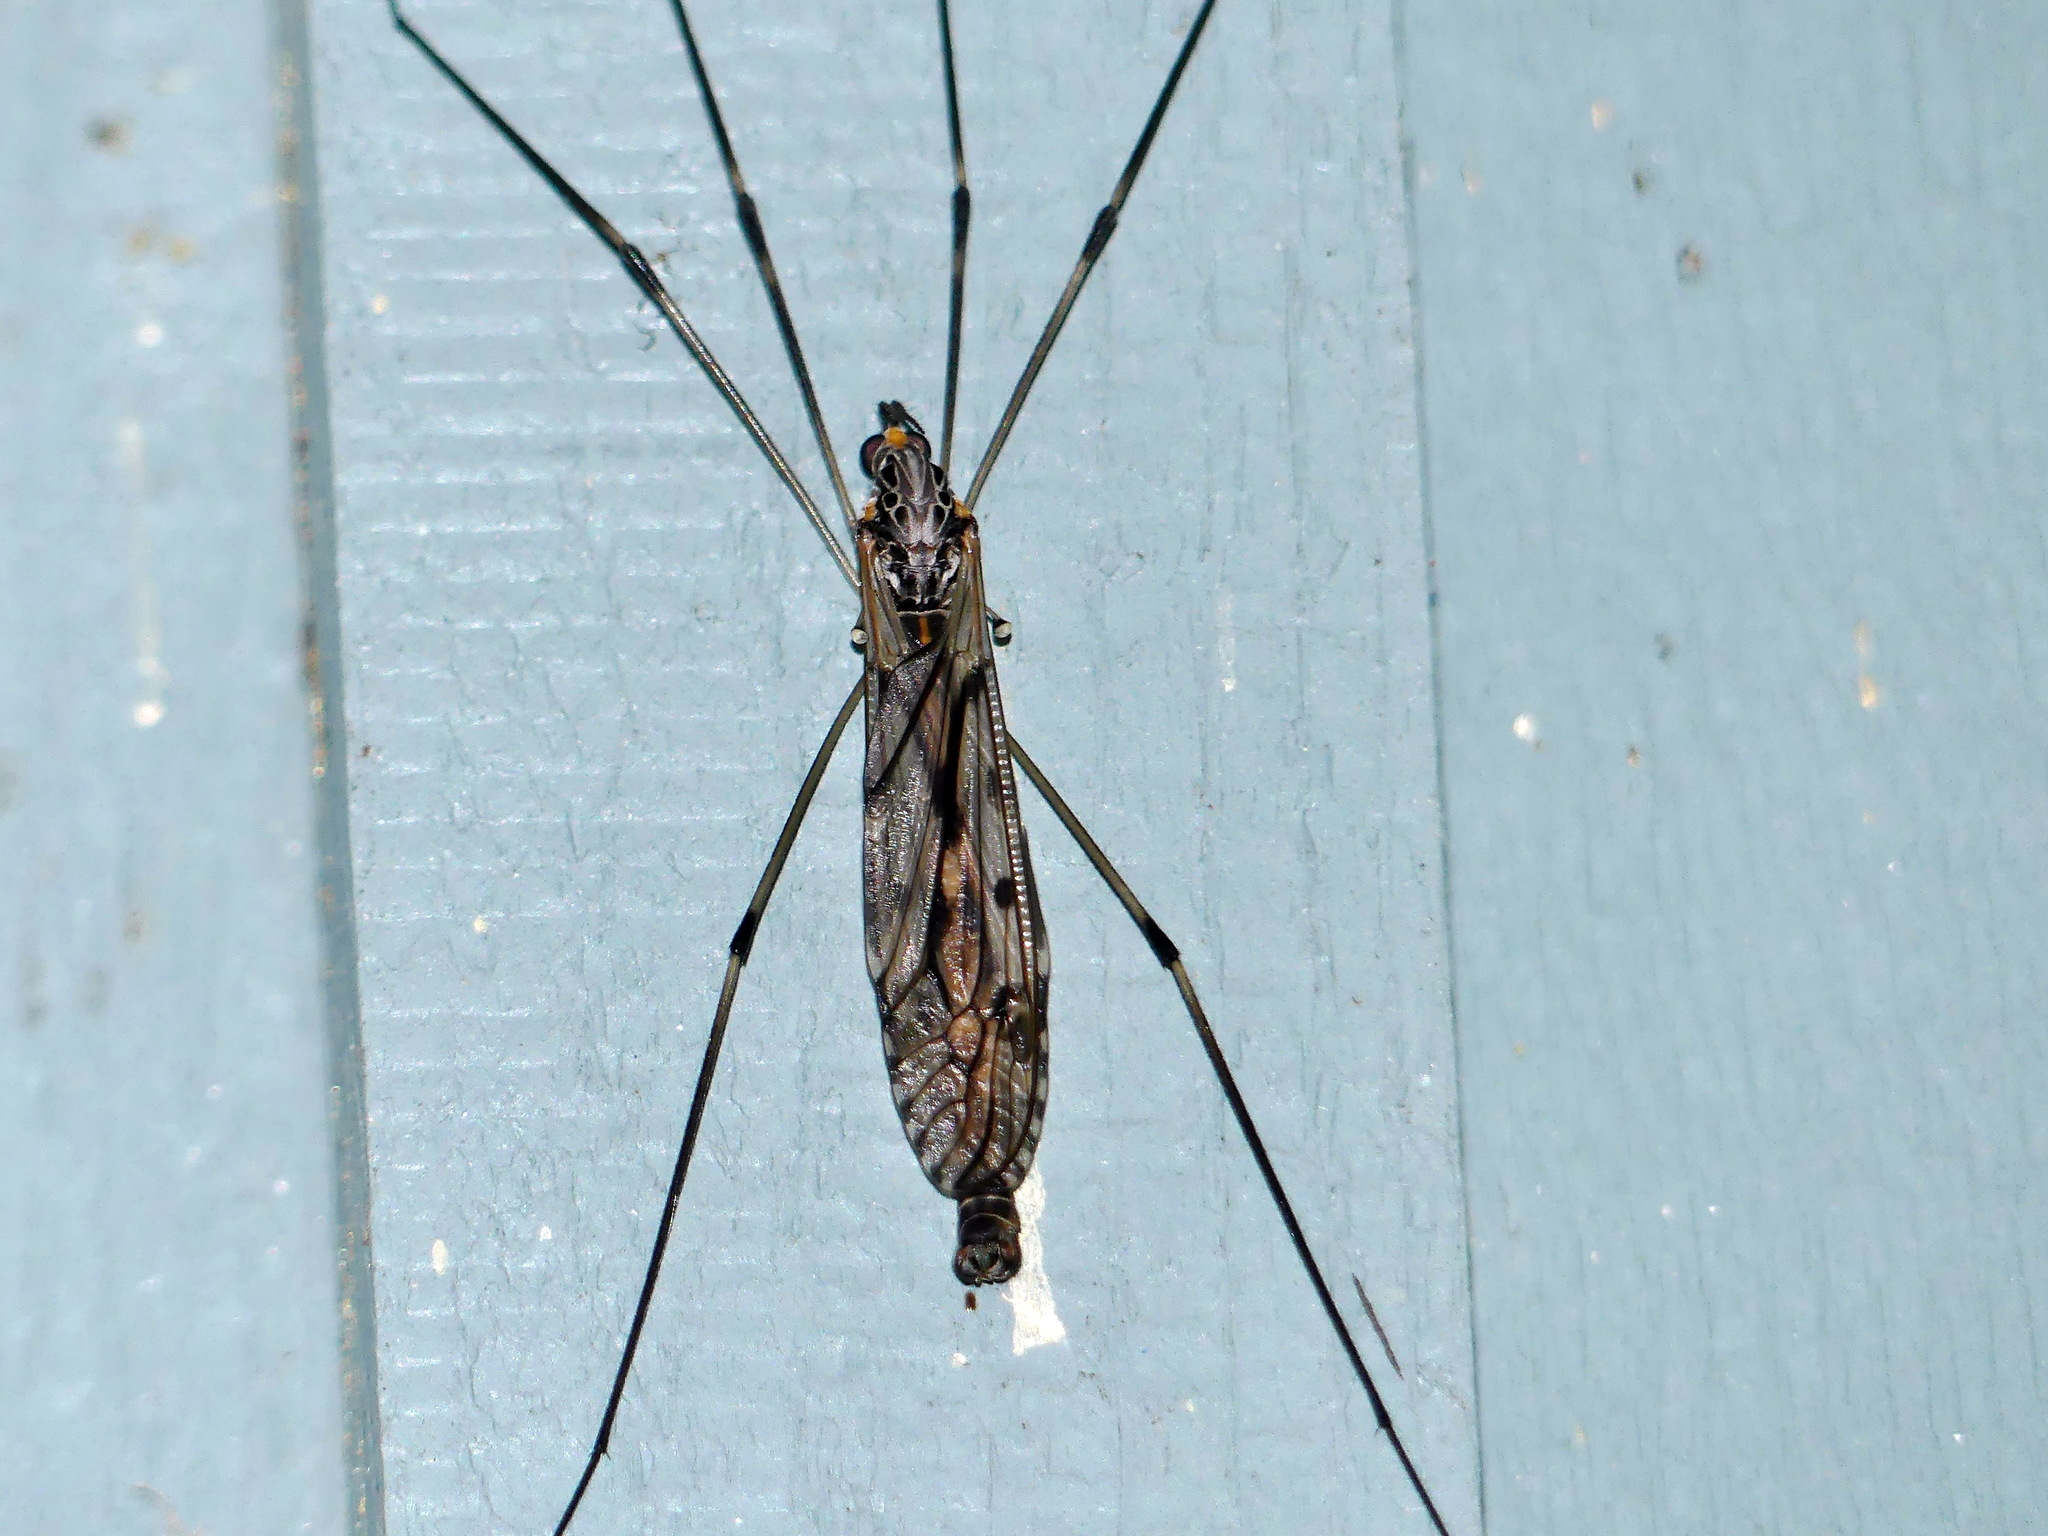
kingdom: Animalia
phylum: Arthropoda
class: Insecta
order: Diptera
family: Tipulidae
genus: Tipula
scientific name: Tipula abdominalis
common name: Giant crane fly
